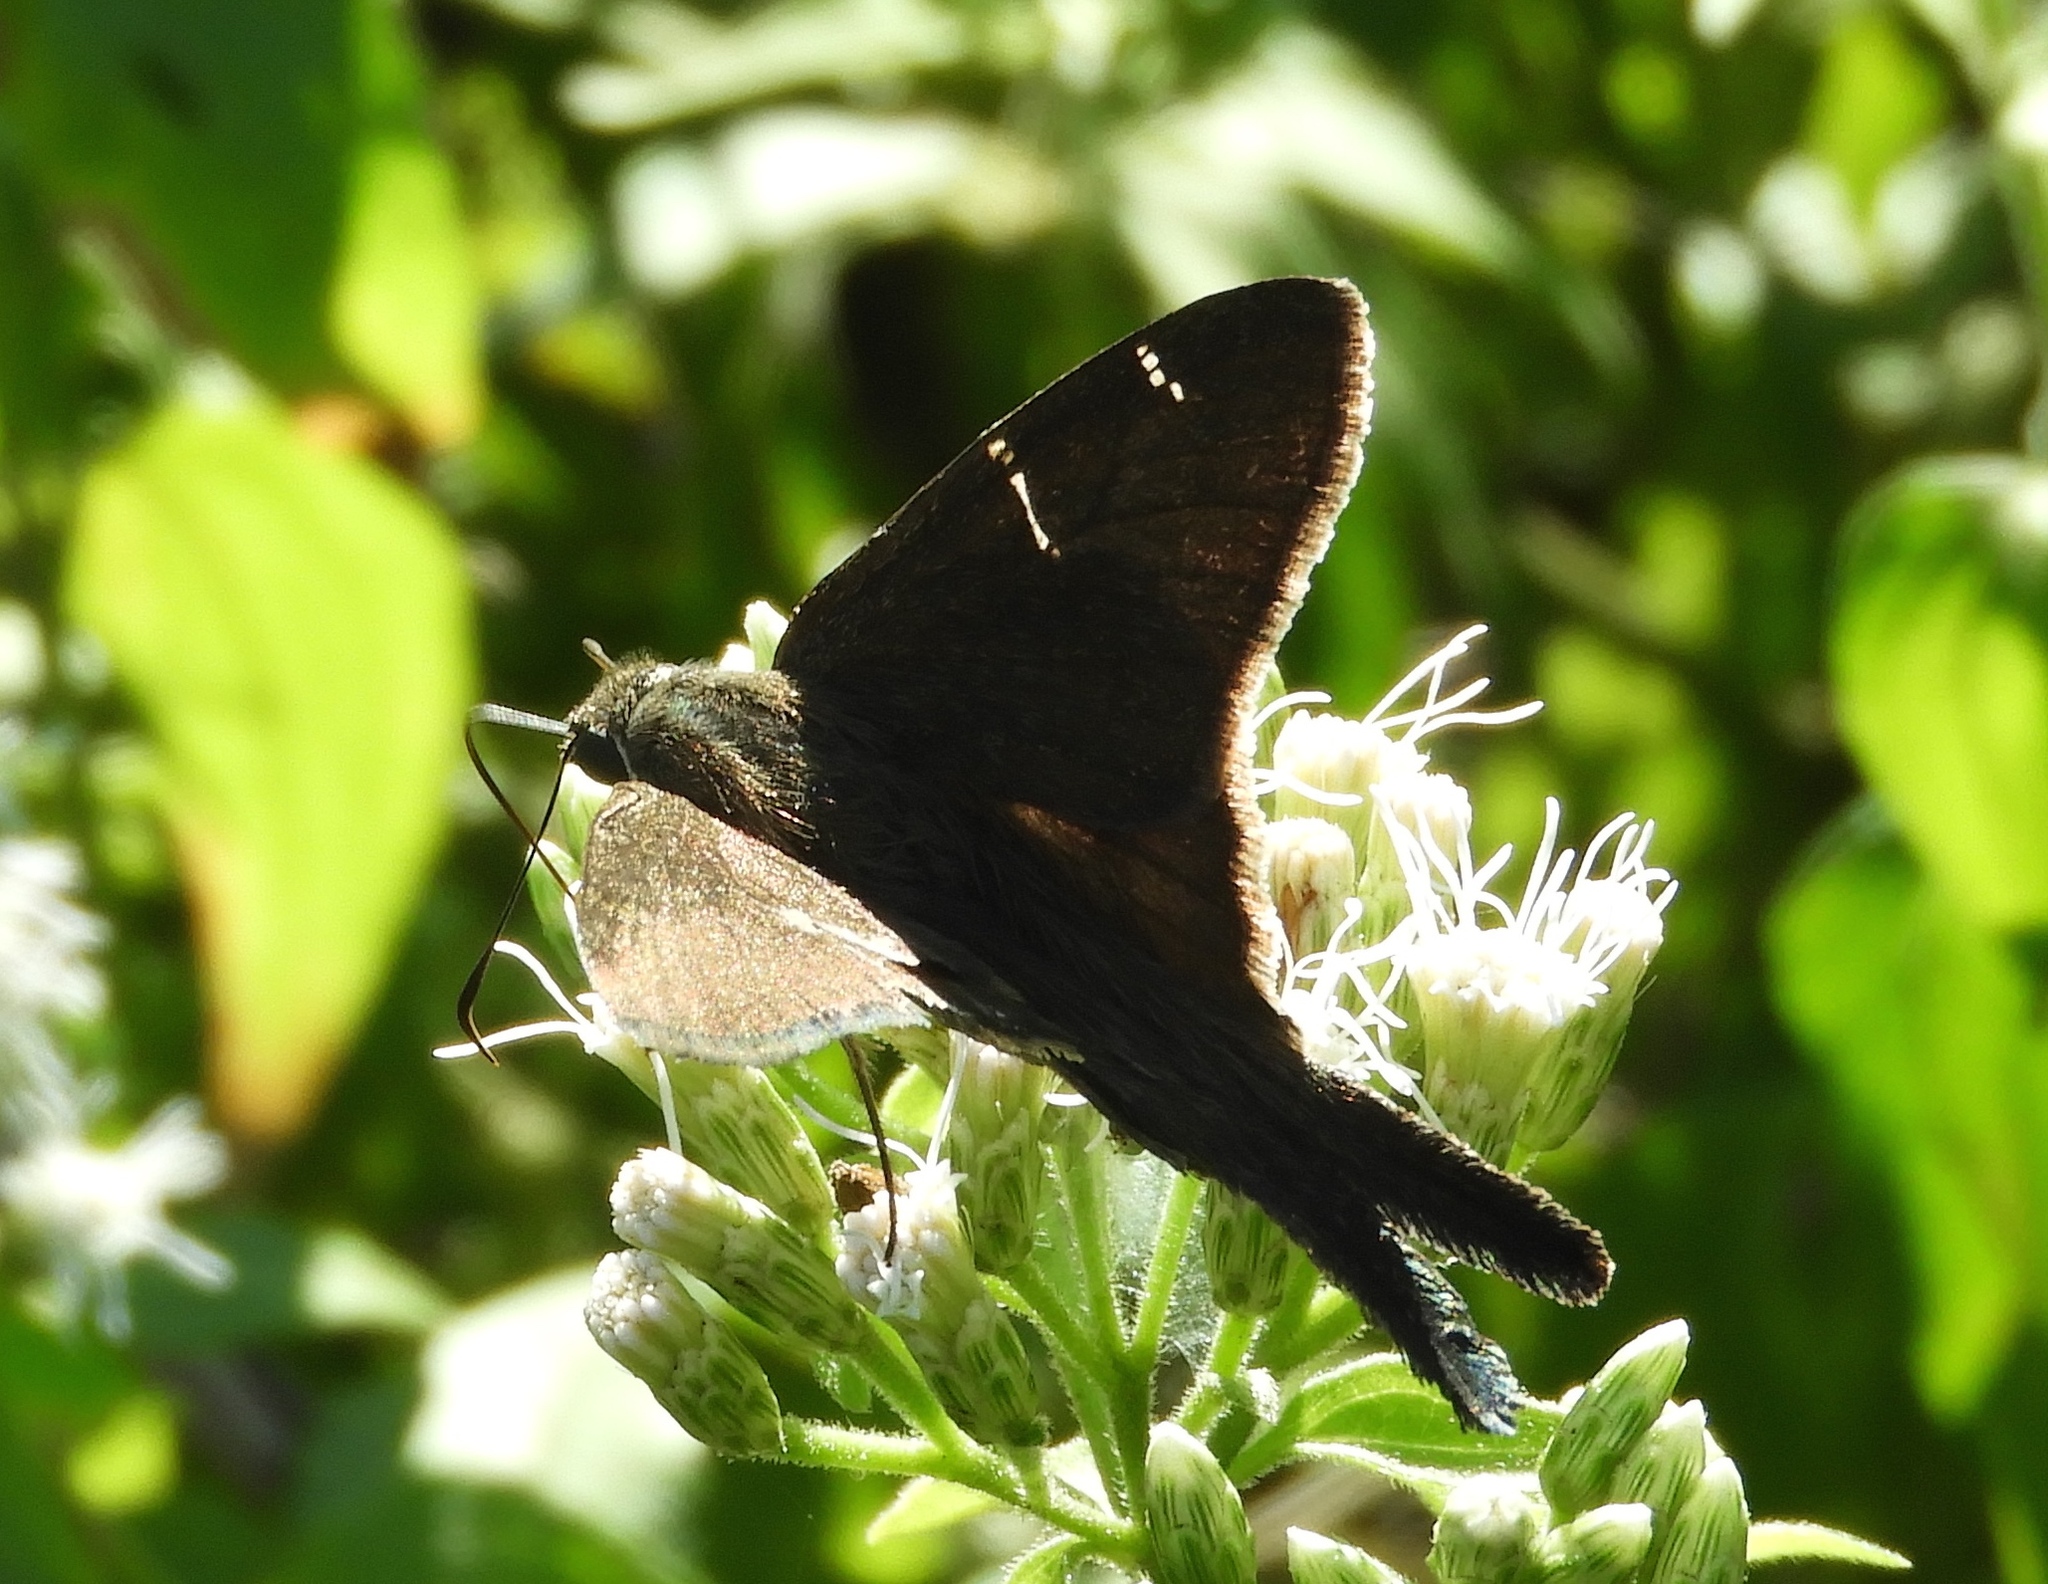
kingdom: Animalia
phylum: Arthropoda
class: Insecta
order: Lepidoptera
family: Hesperiidae
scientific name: Hesperiidae
